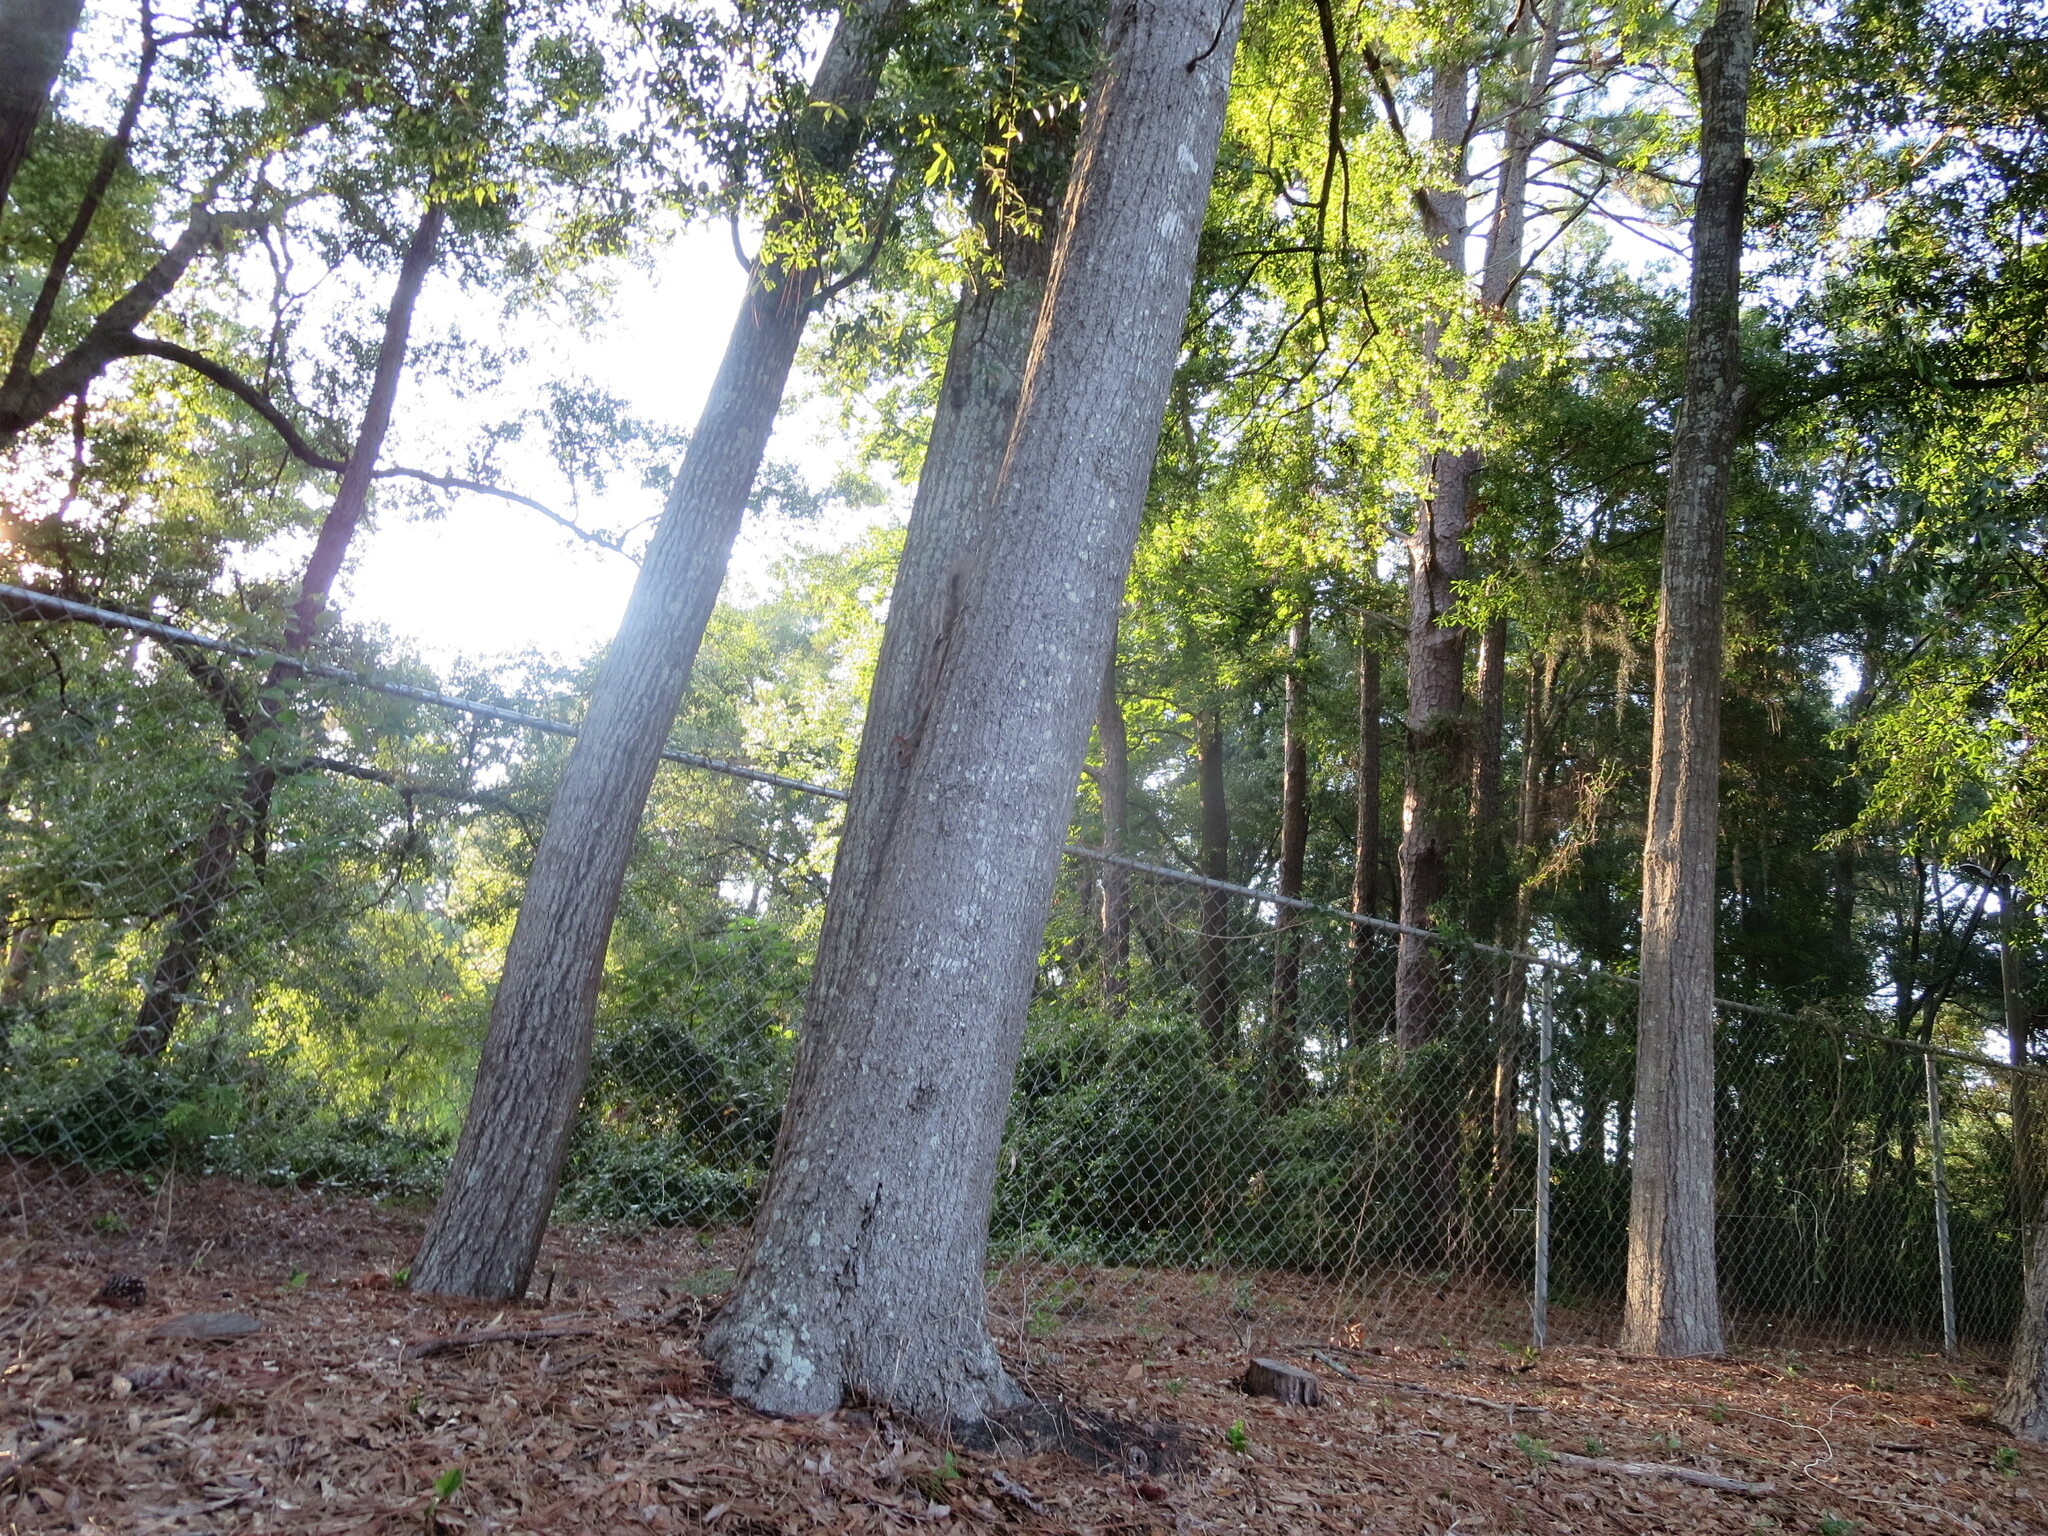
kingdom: Animalia
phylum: Chordata
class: Mammalia
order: Rodentia
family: Sciuridae
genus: Sciurus
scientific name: Sciurus carolinensis
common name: Eastern gray squirrel
